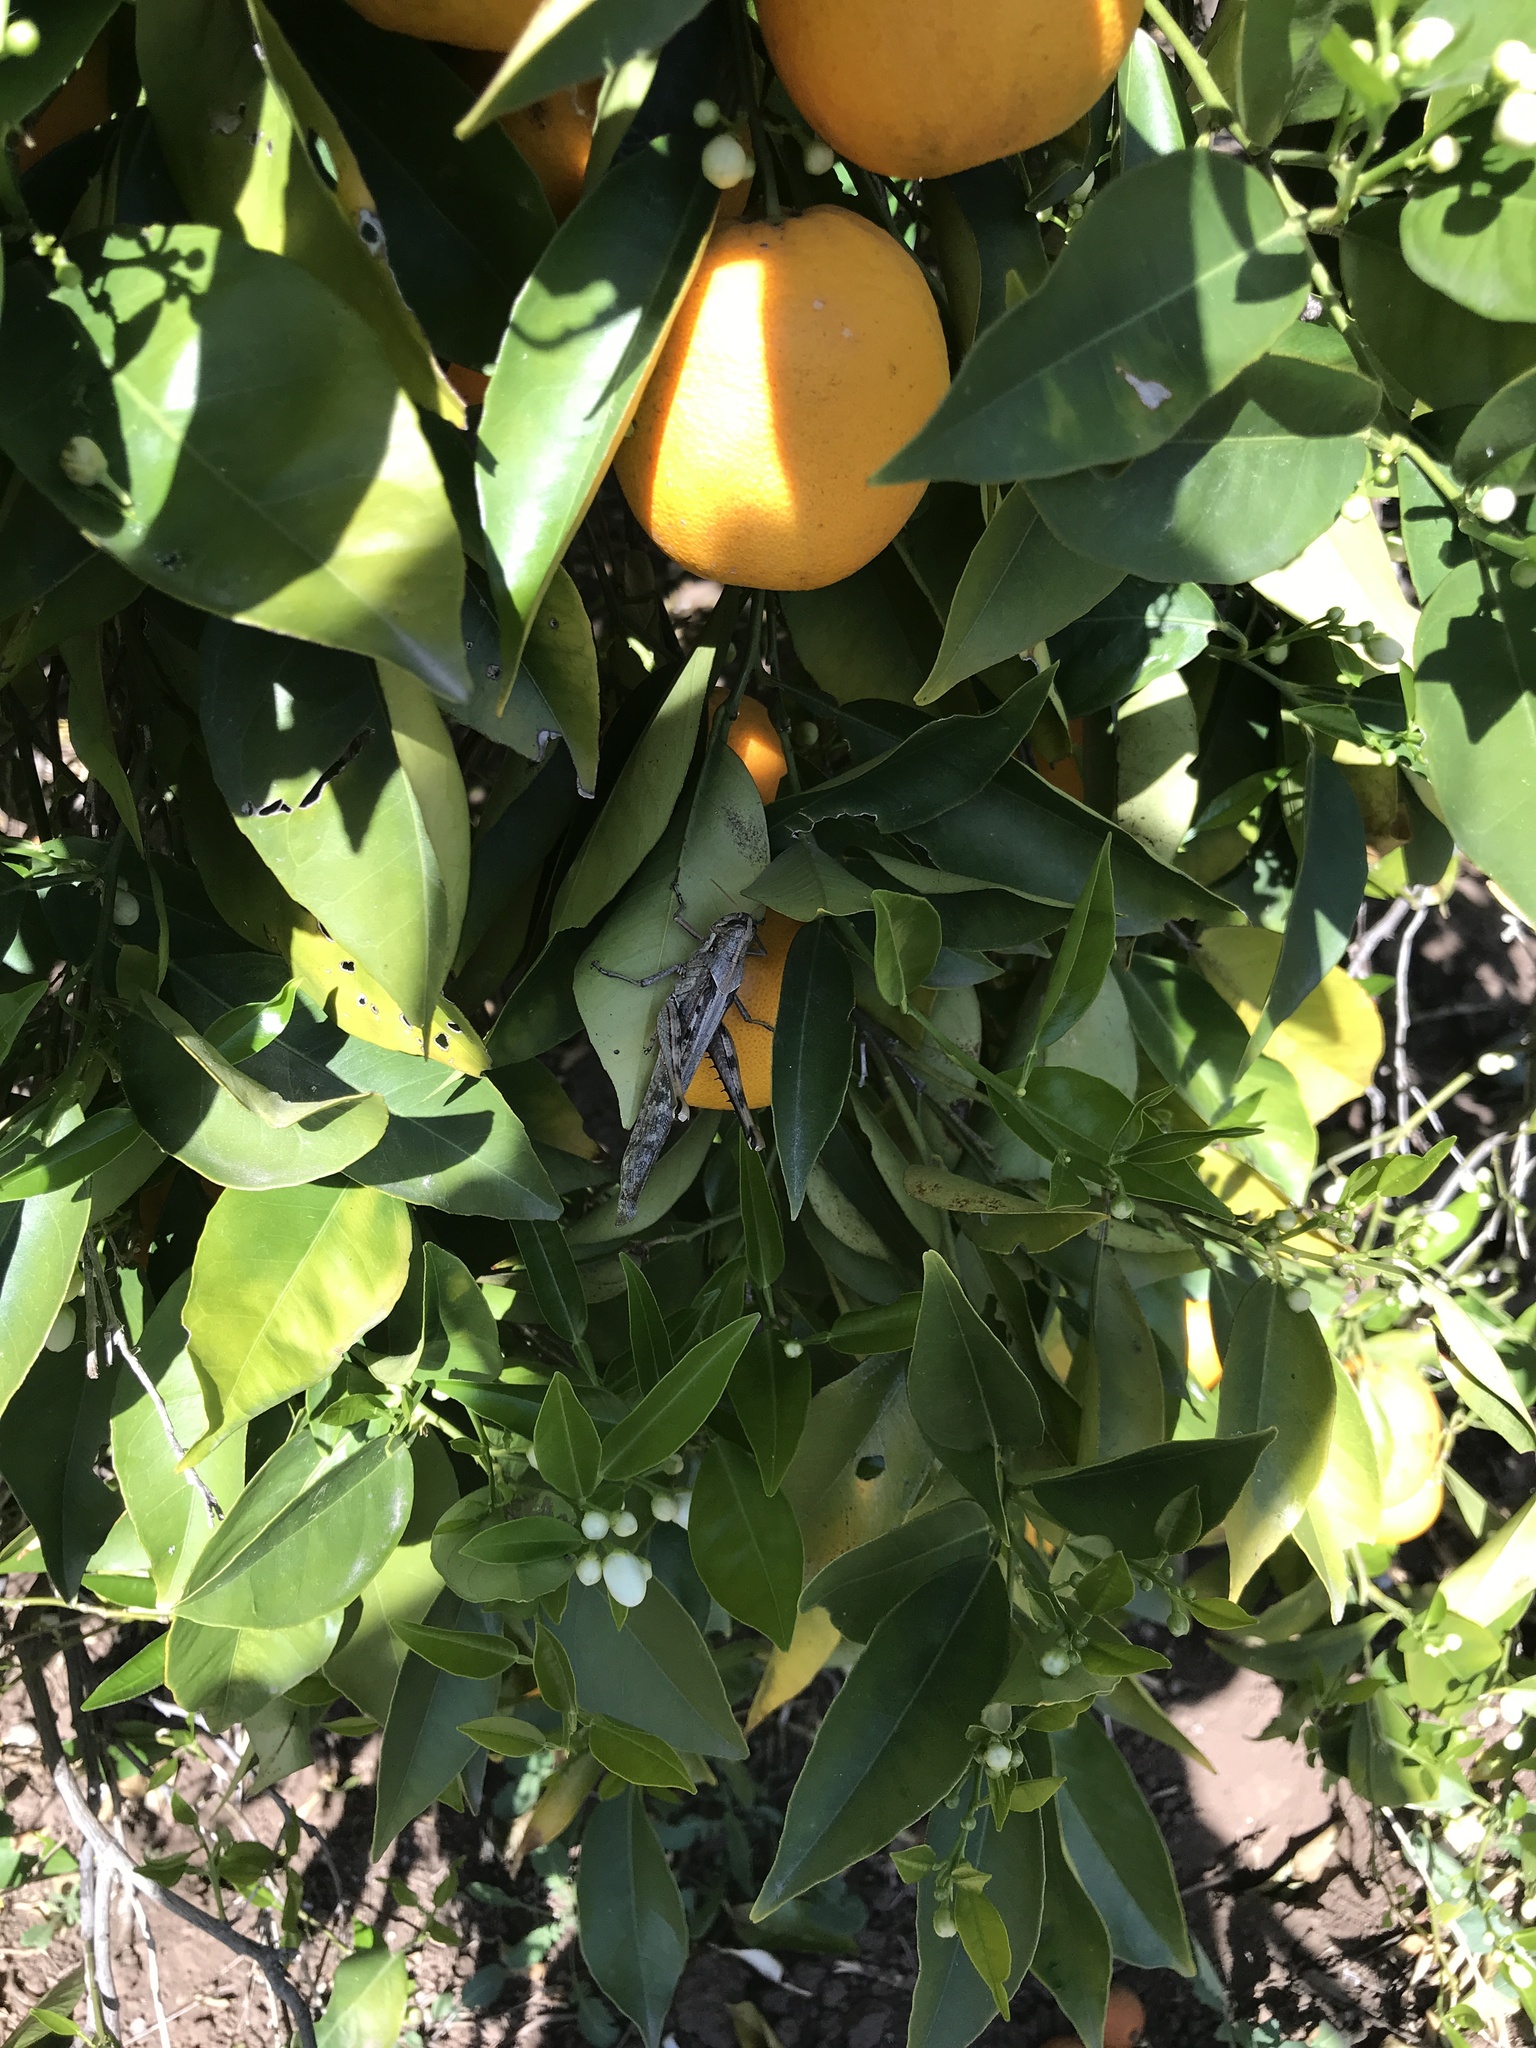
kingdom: Animalia
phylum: Arthropoda
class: Insecta
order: Orthoptera
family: Acrididae
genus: Schistocerca
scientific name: Schistocerca nitens
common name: Vagrant grasshopper
